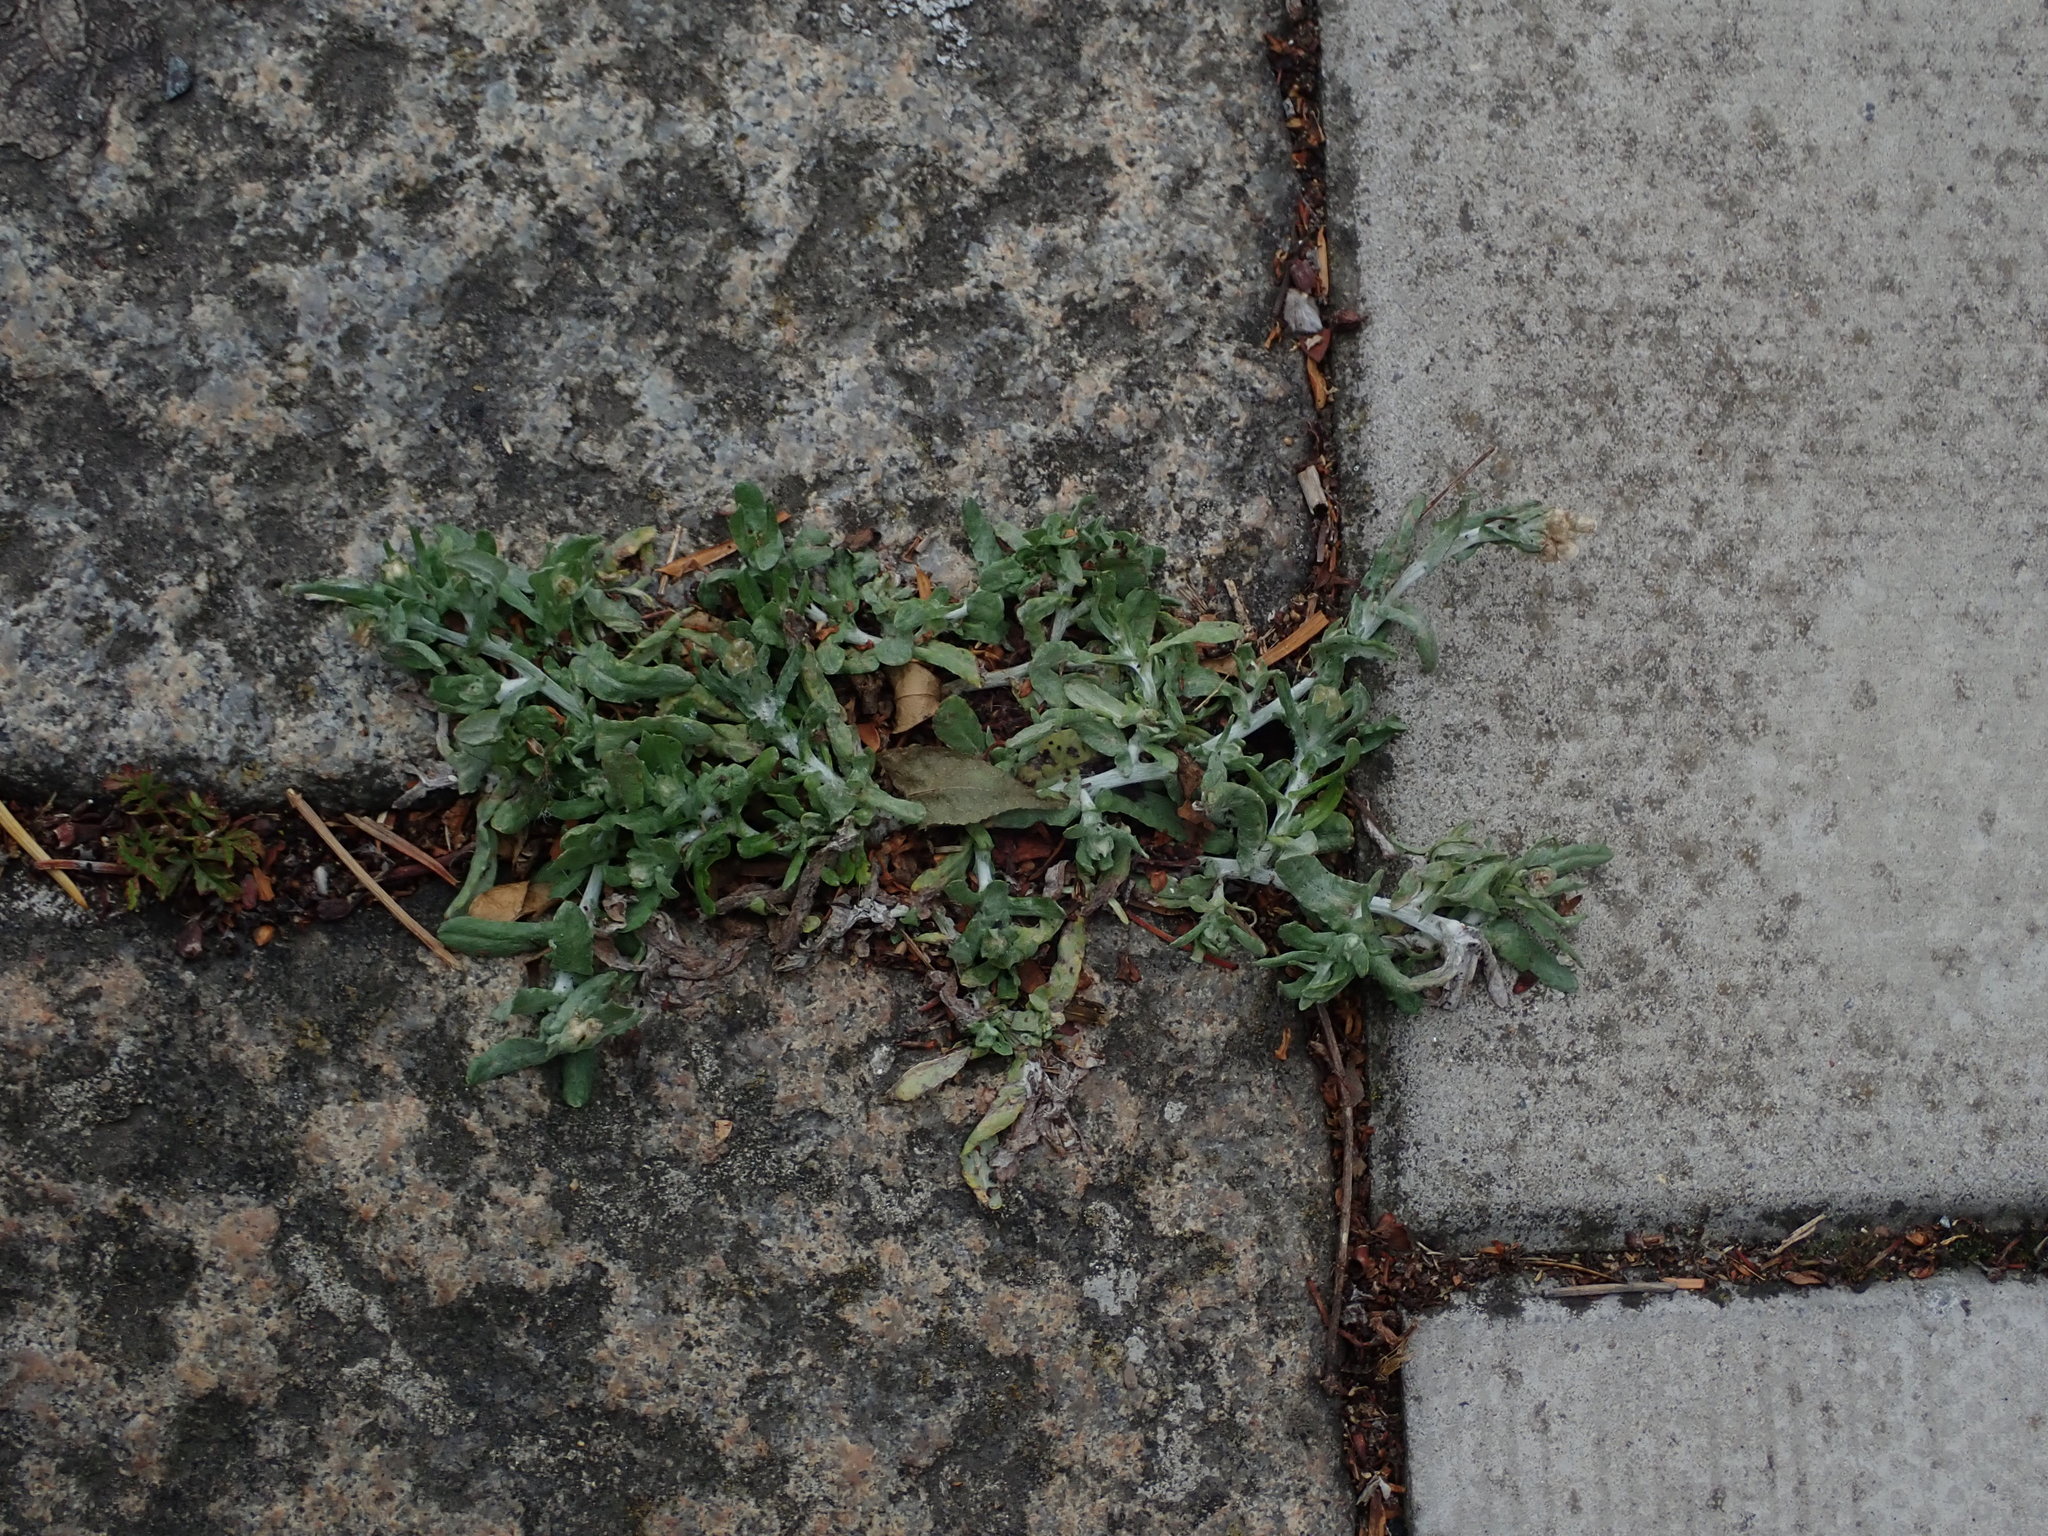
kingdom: Plantae
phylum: Tracheophyta
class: Magnoliopsida
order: Asterales
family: Asteraceae
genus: Helichrysum
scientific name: Helichrysum luteoalbum
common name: Daisy
